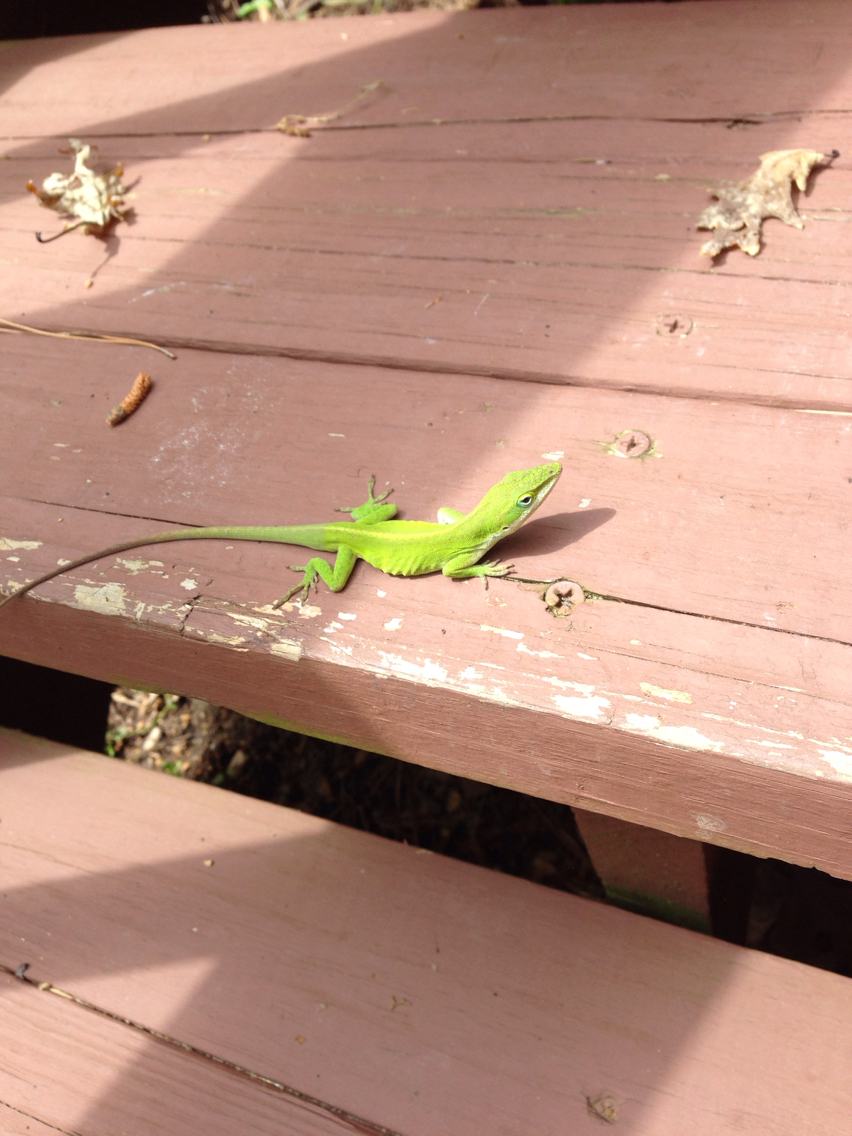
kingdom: Animalia
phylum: Chordata
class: Squamata
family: Dactyloidae
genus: Anolis
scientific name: Anolis carolinensis
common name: Green anole
